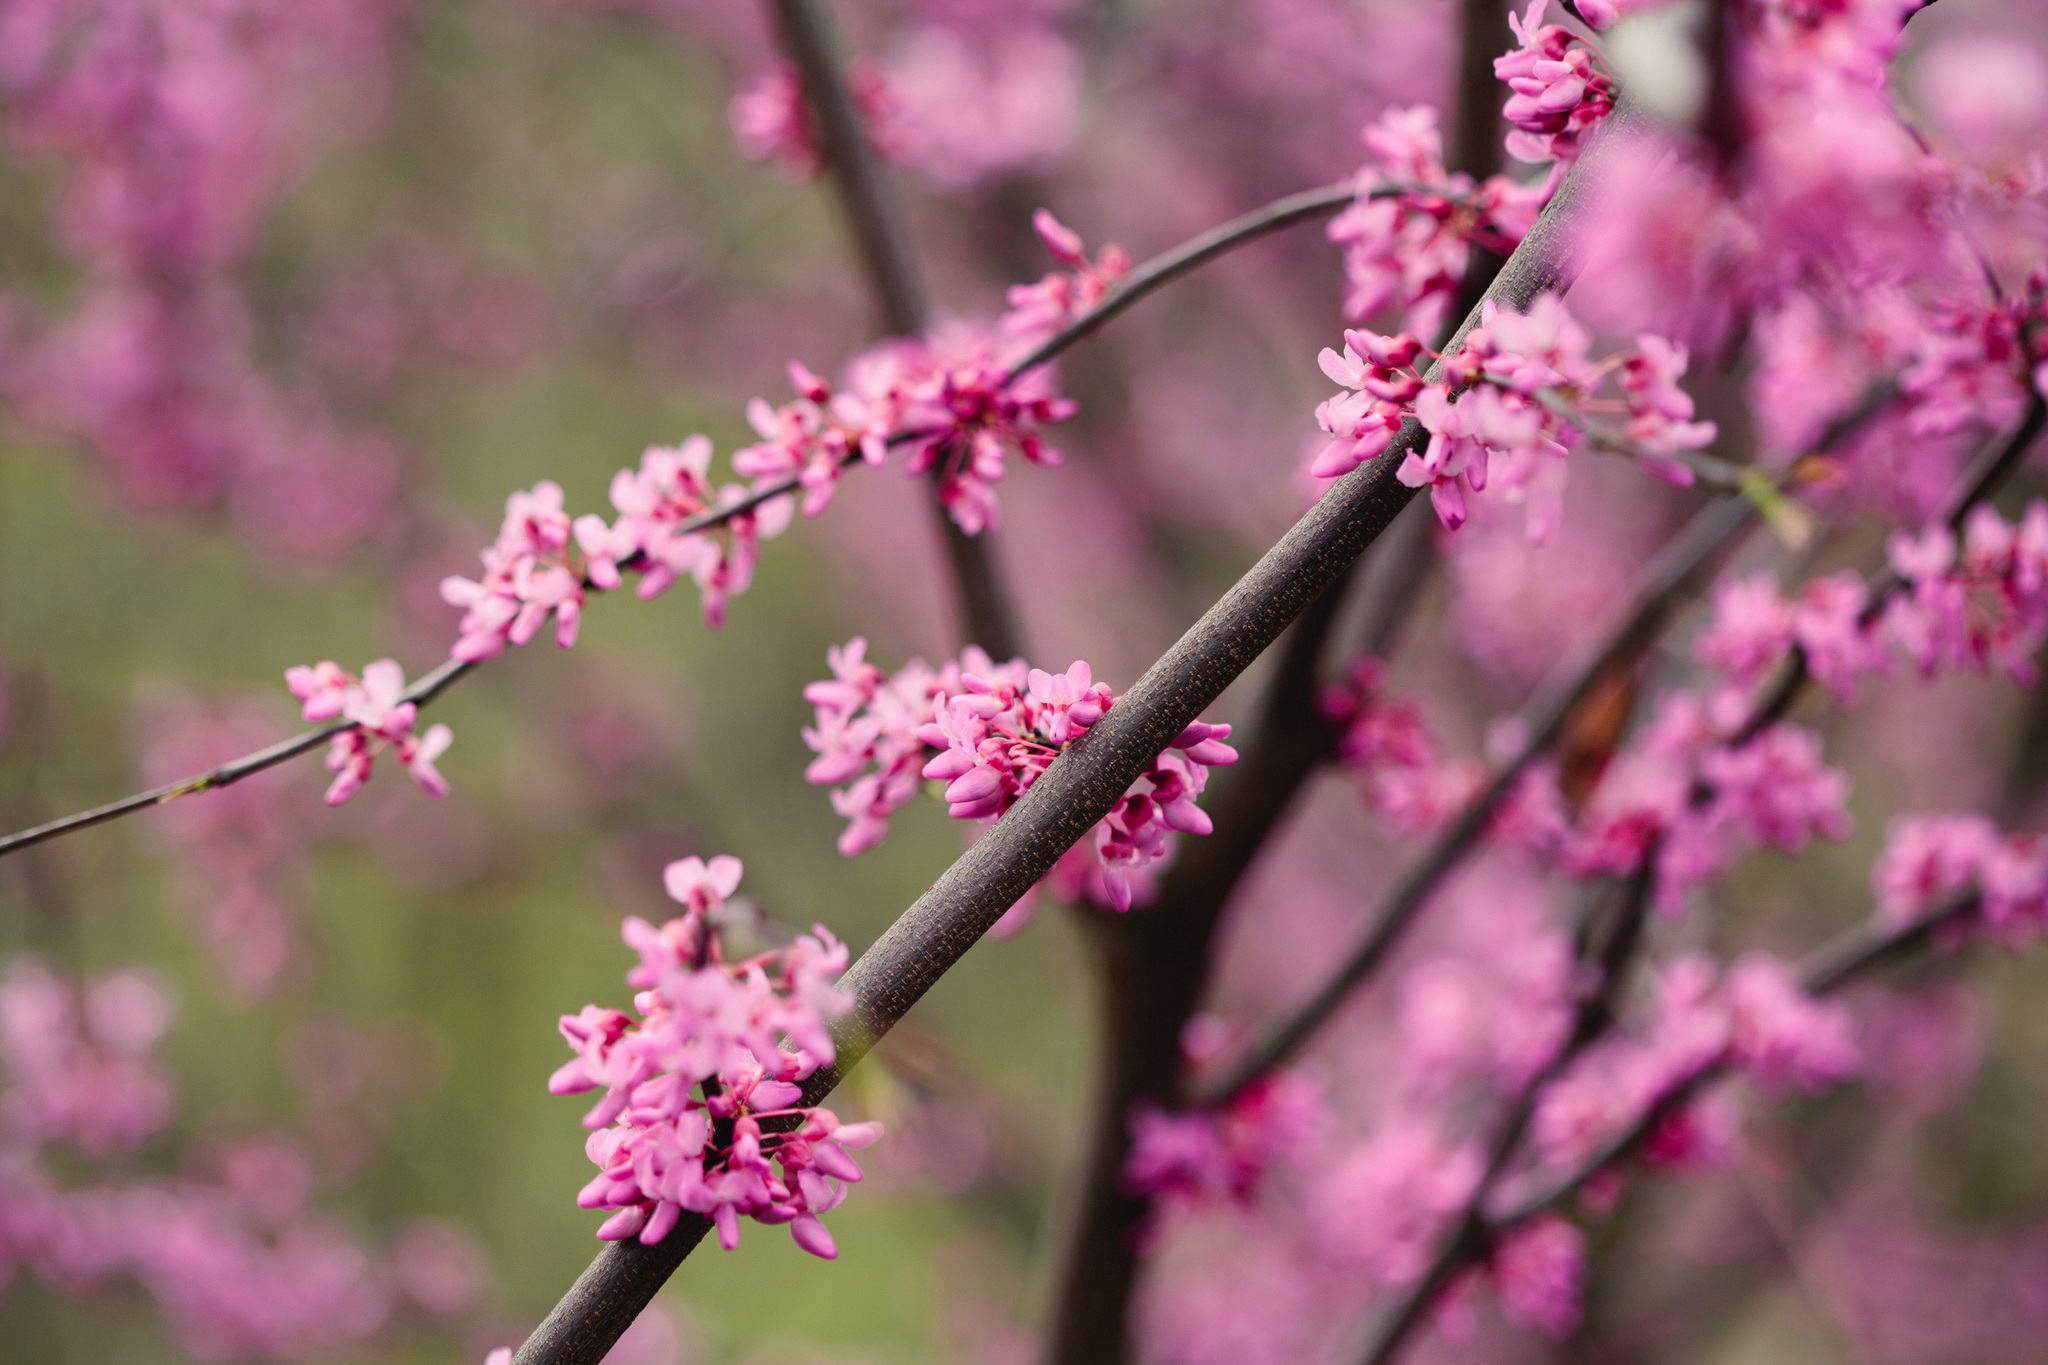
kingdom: Plantae
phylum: Tracheophyta
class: Magnoliopsida
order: Fabales
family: Fabaceae
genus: Cercis
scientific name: Cercis canadensis
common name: Eastern redbud
